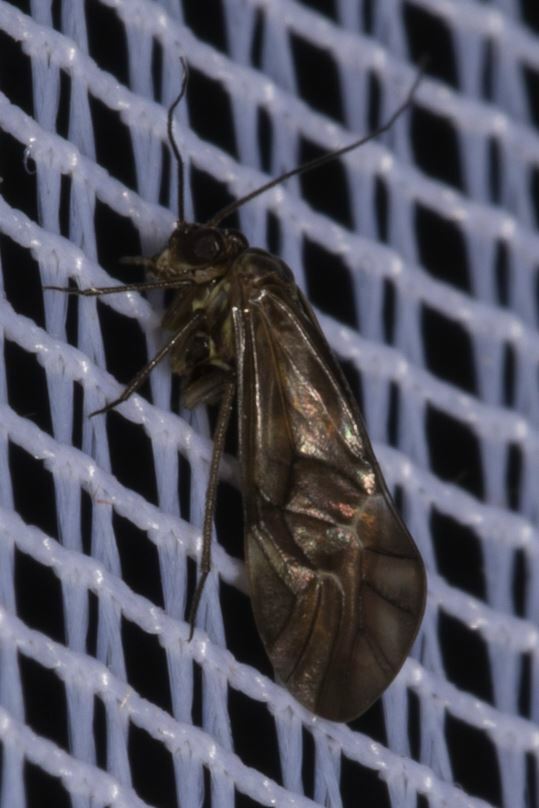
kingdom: Animalia
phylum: Arthropoda
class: Insecta
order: Psocodea
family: Psocidae
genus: Metylophorus
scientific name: Metylophorus nebulosus
